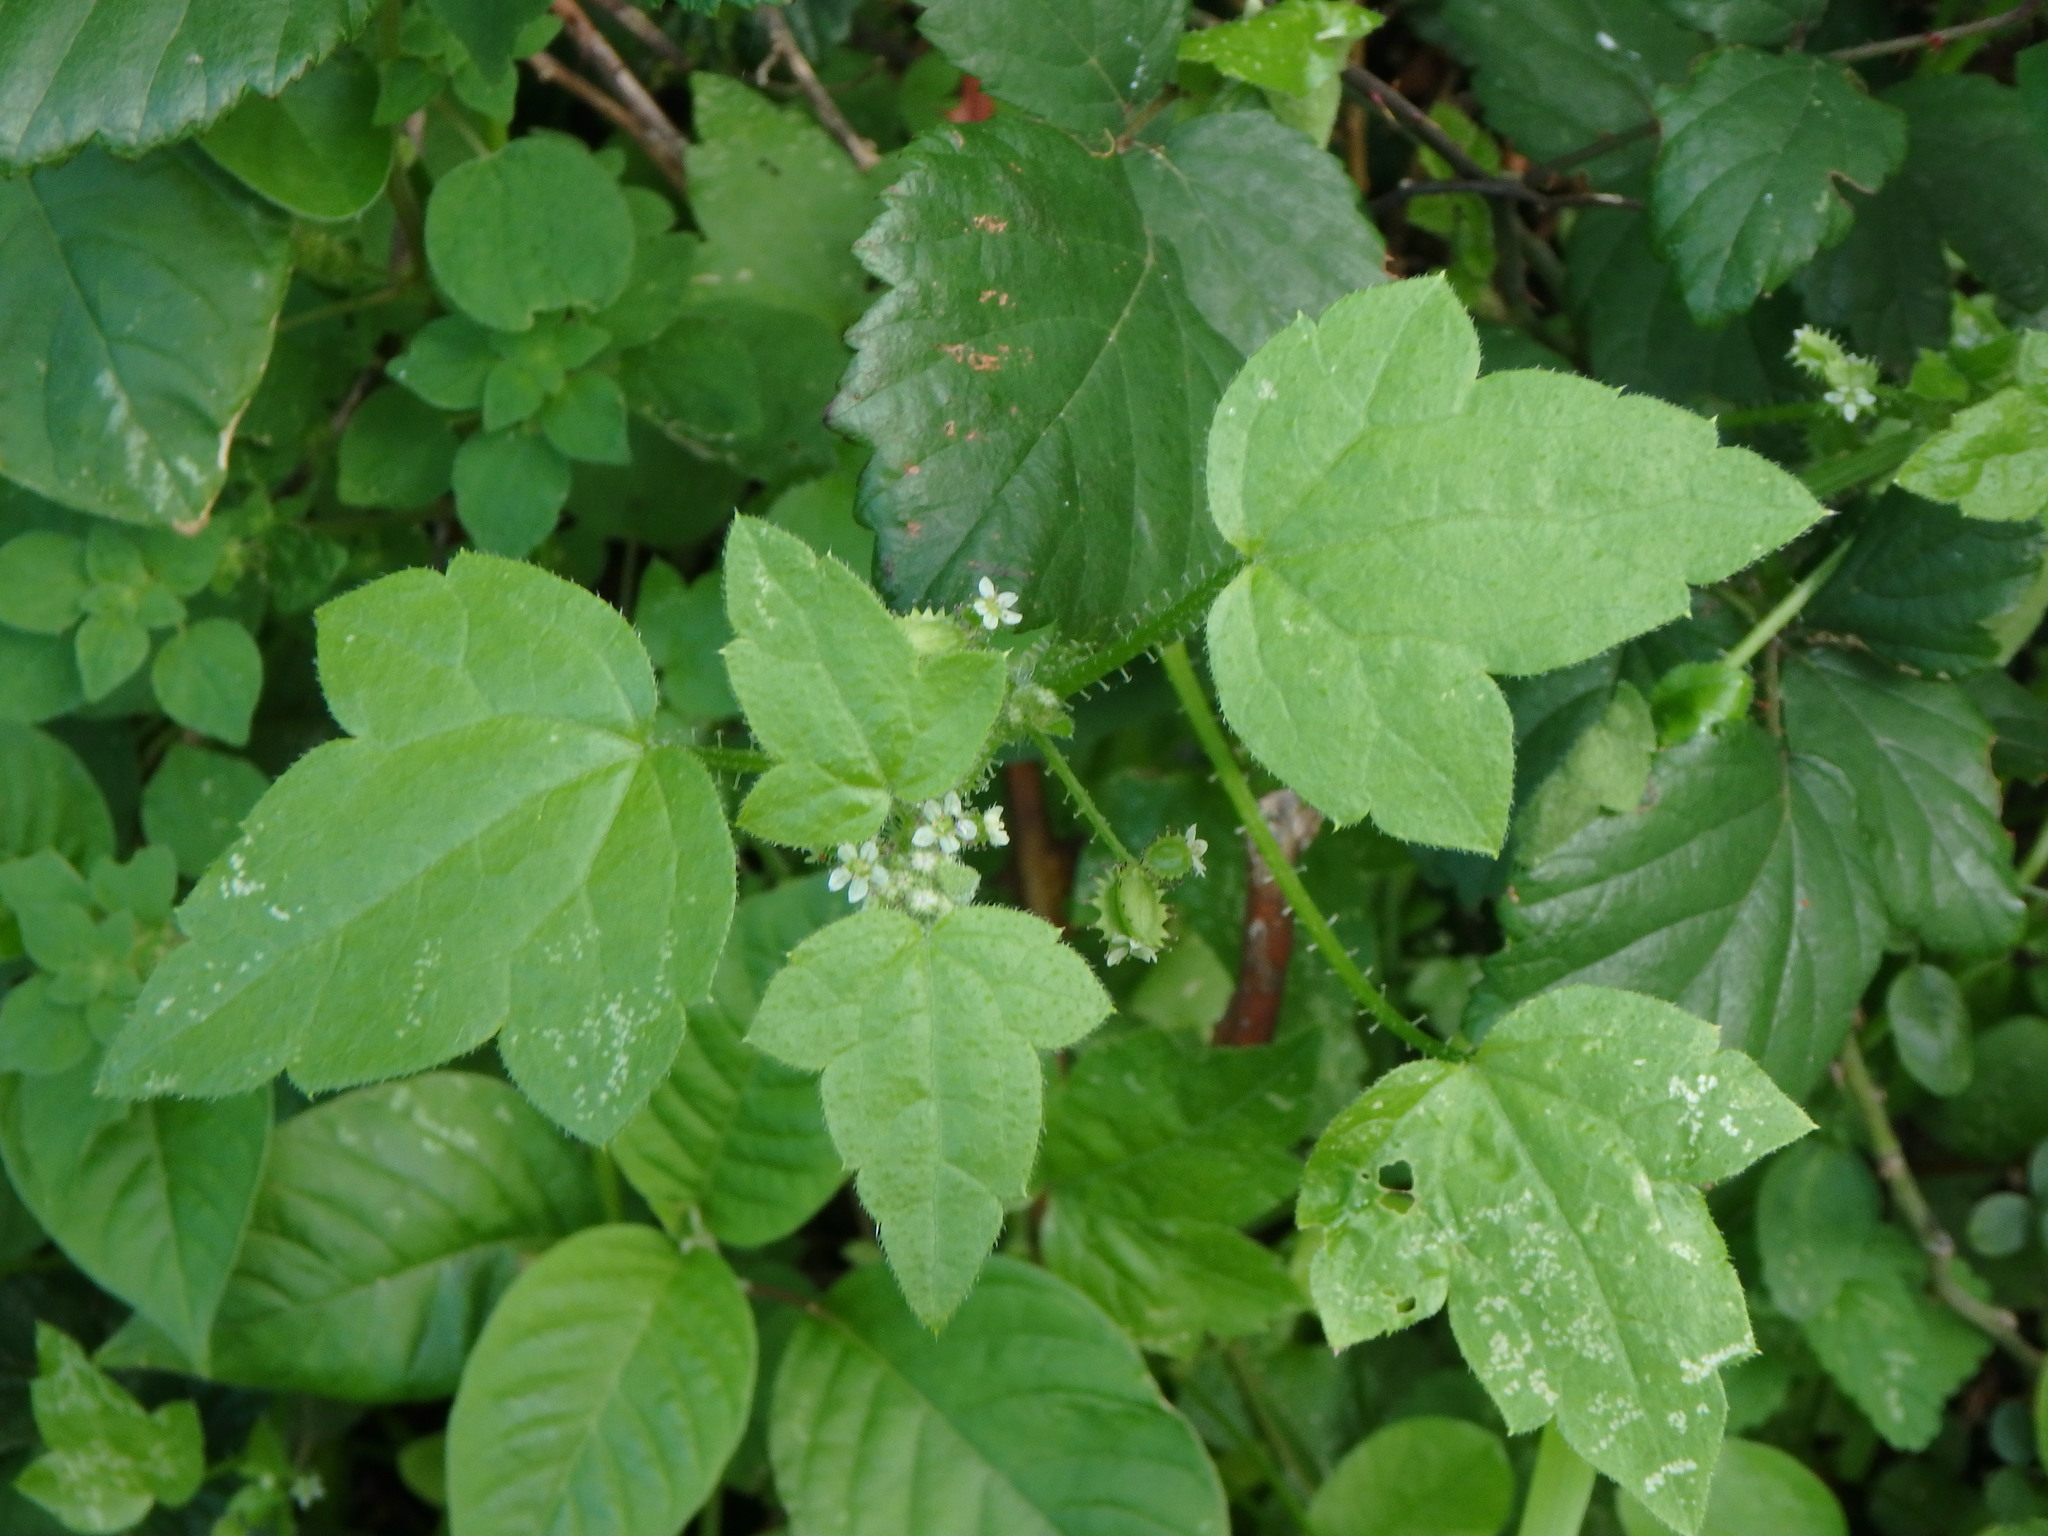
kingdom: Plantae
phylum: Tracheophyta
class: Magnoliopsida
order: Apiales
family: Apiaceae
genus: Drusa
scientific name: Drusa glandulosa
